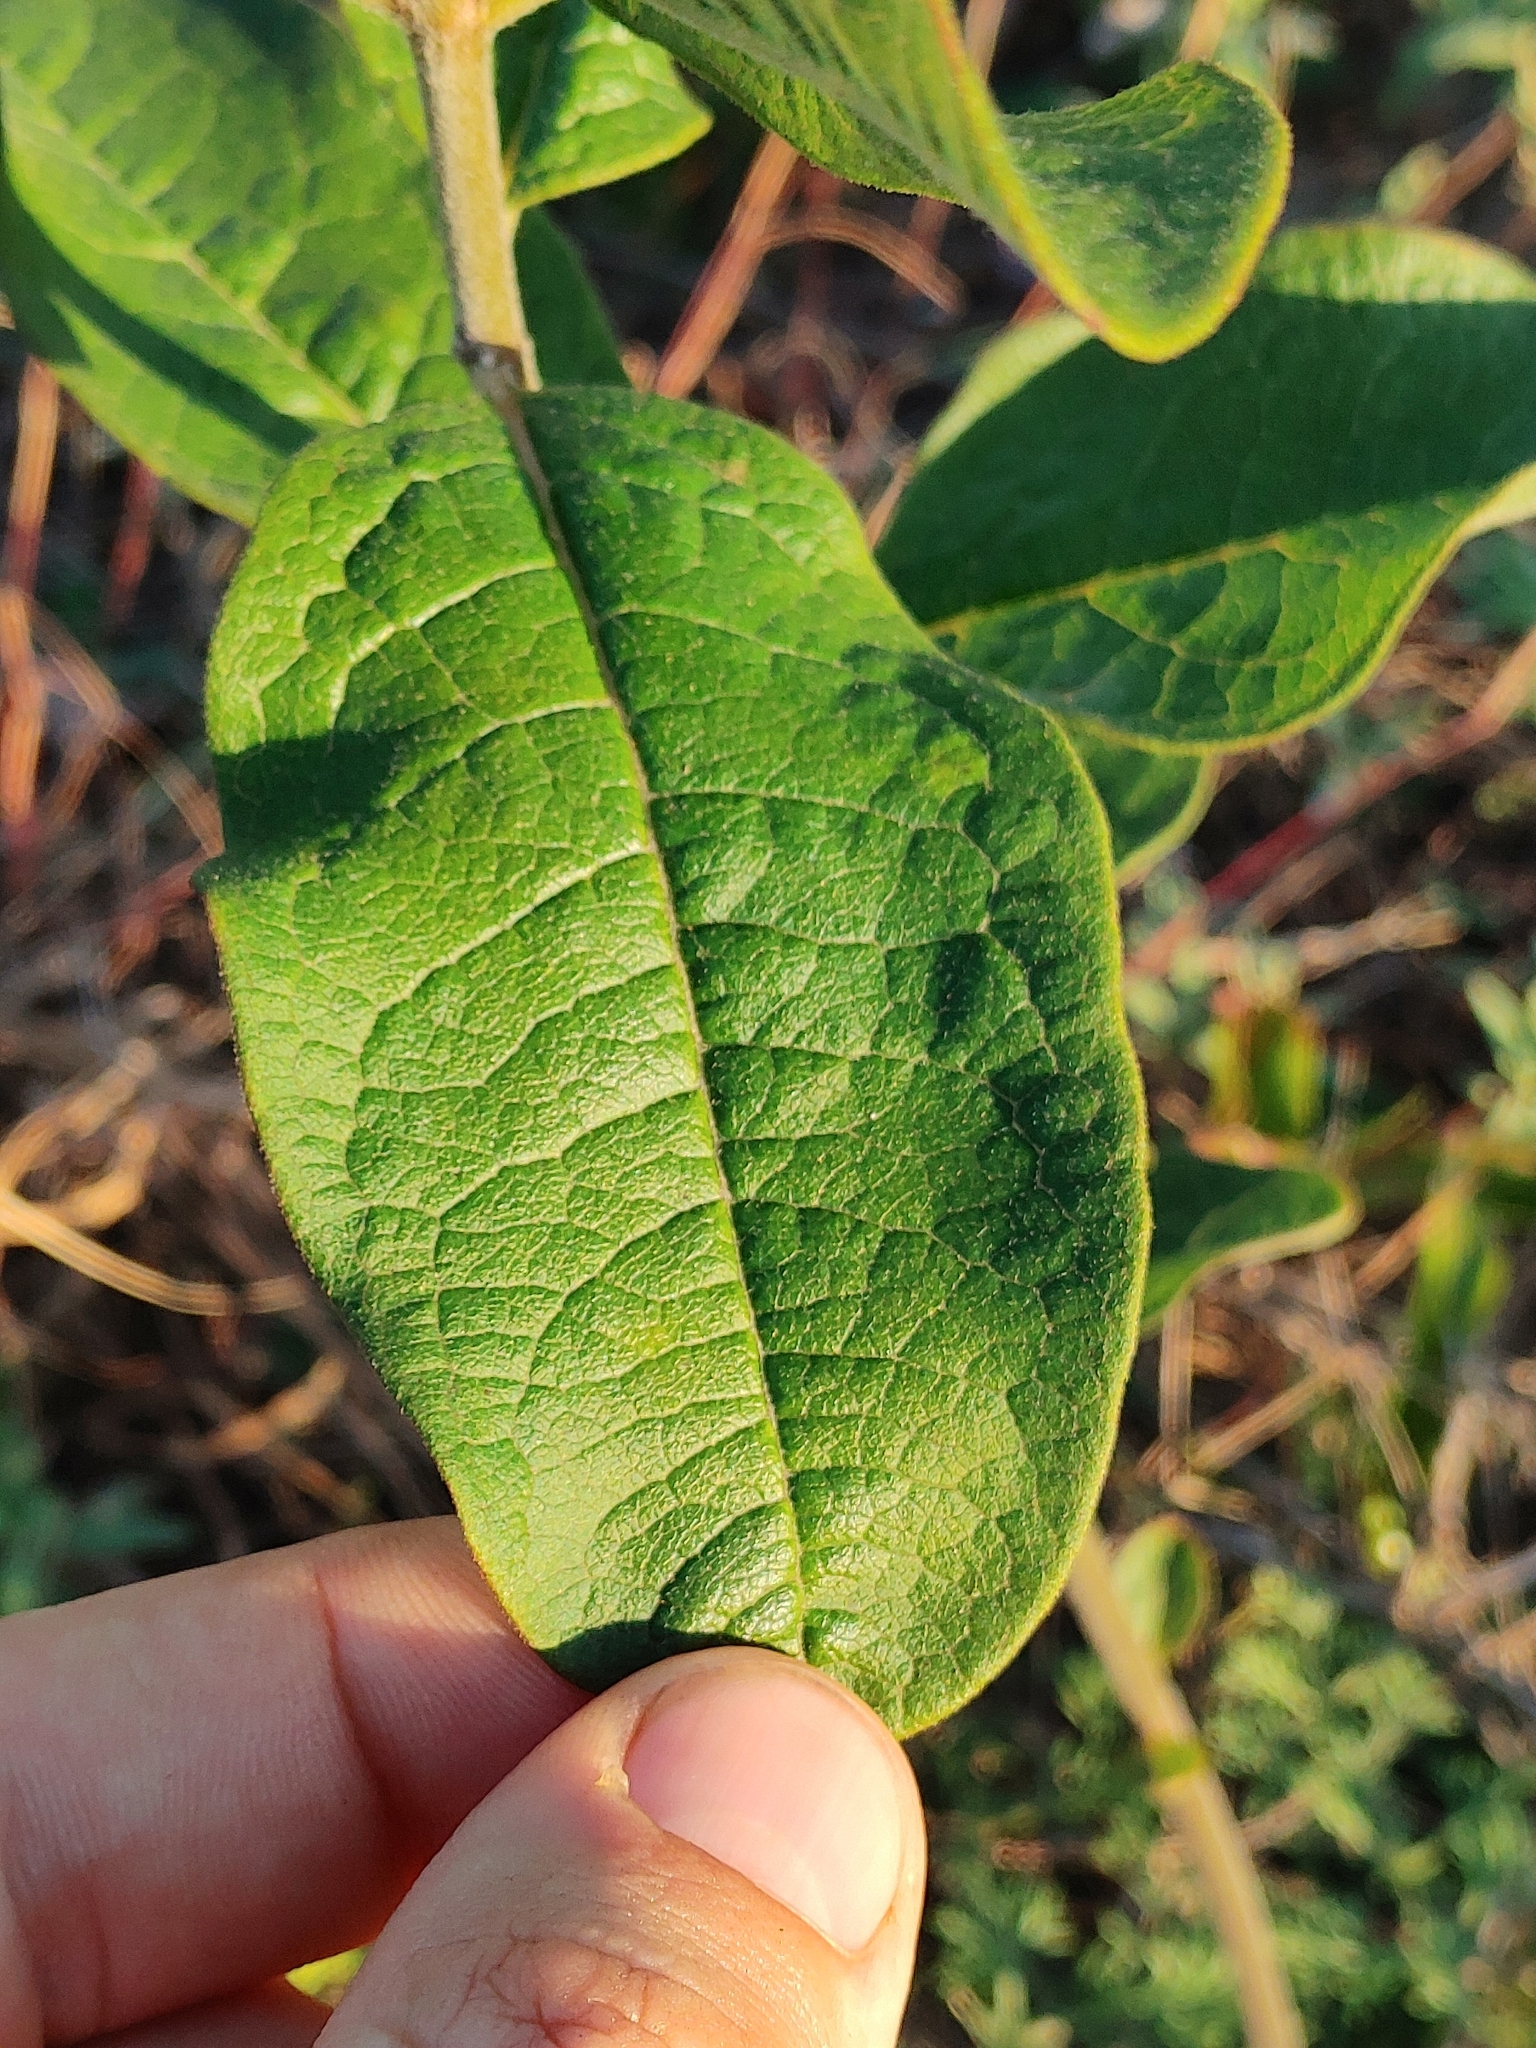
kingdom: Plantae
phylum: Tracheophyta
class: Magnoliopsida
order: Gentianales
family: Apocynaceae
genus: Asclepias
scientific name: Asclepias tomentosa
